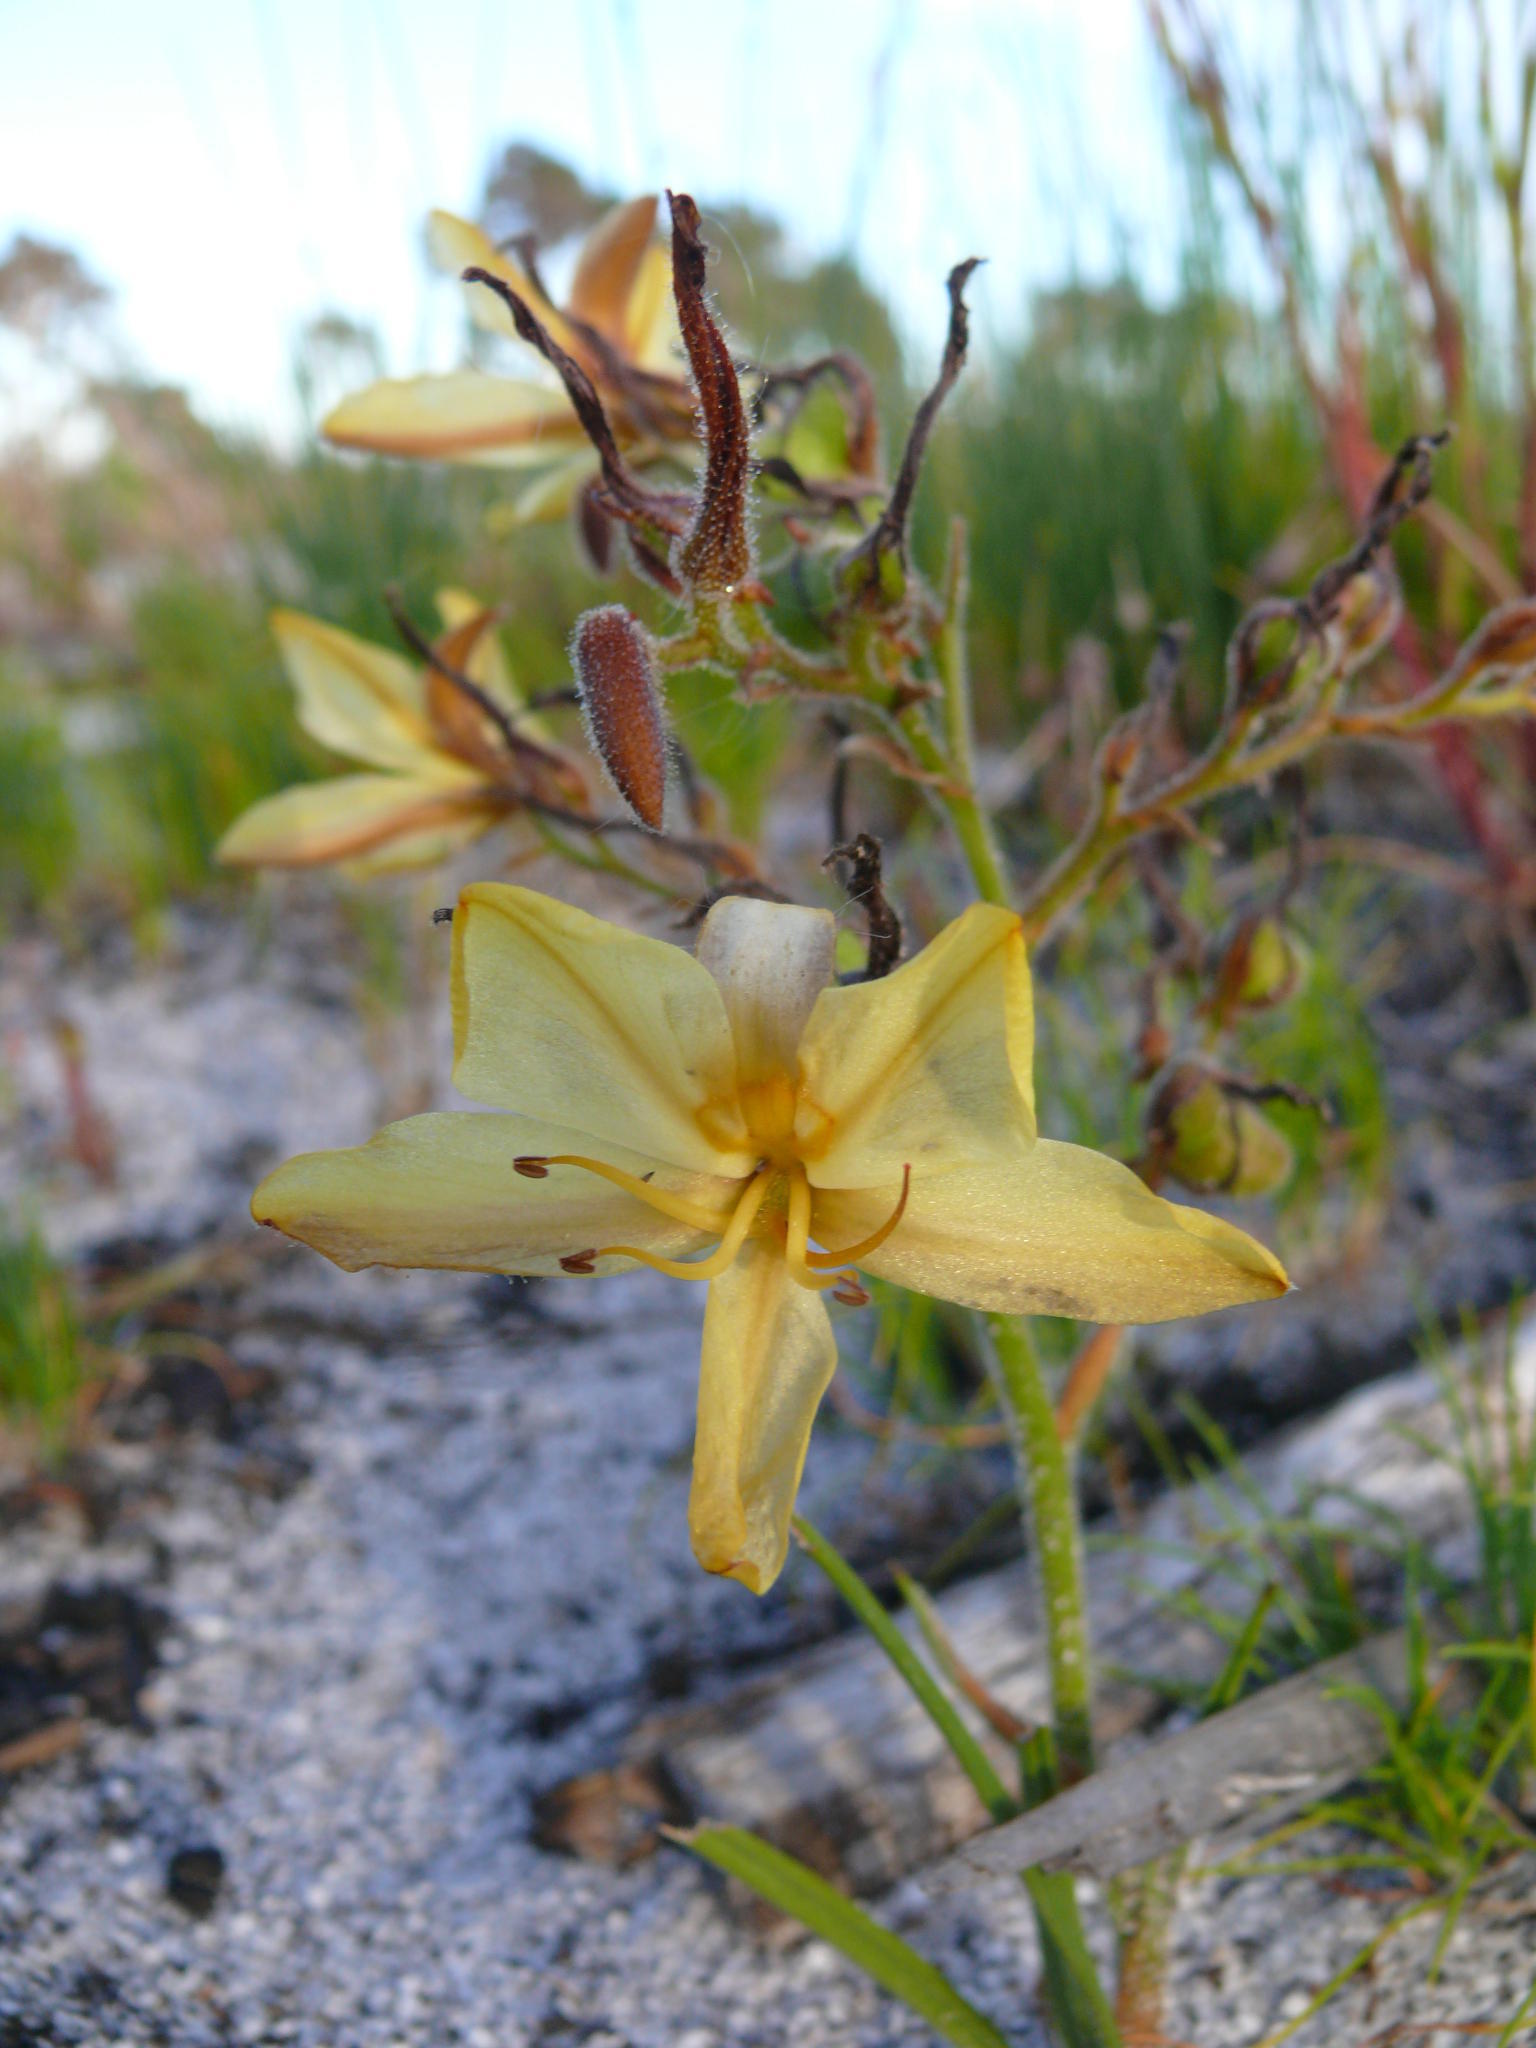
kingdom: Plantae
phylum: Tracheophyta
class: Liliopsida
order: Commelinales
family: Haemodoraceae
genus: Wachendorfia
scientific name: Wachendorfia paniculata
